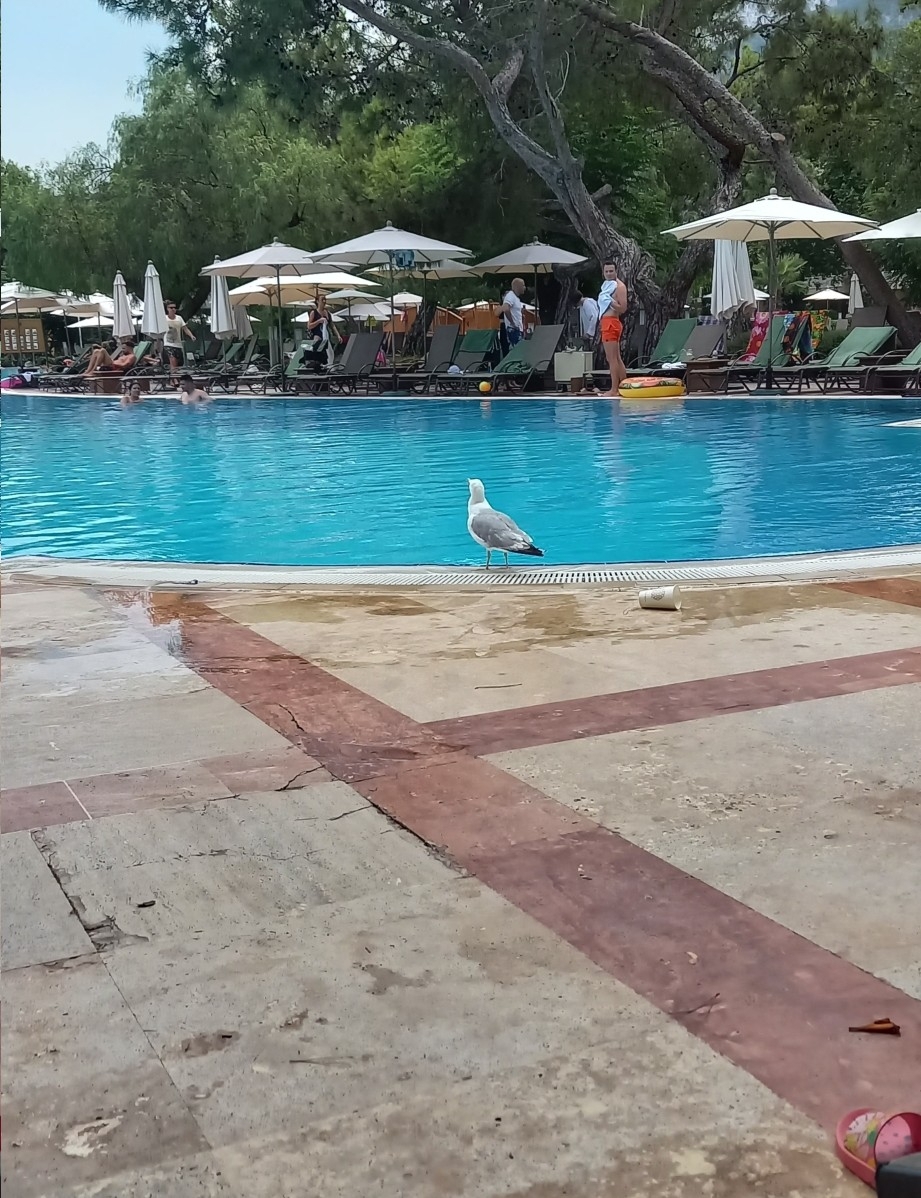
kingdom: Animalia
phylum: Chordata
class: Aves
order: Charadriiformes
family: Laridae
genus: Larus
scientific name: Larus michahellis
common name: Yellow-legged gull
